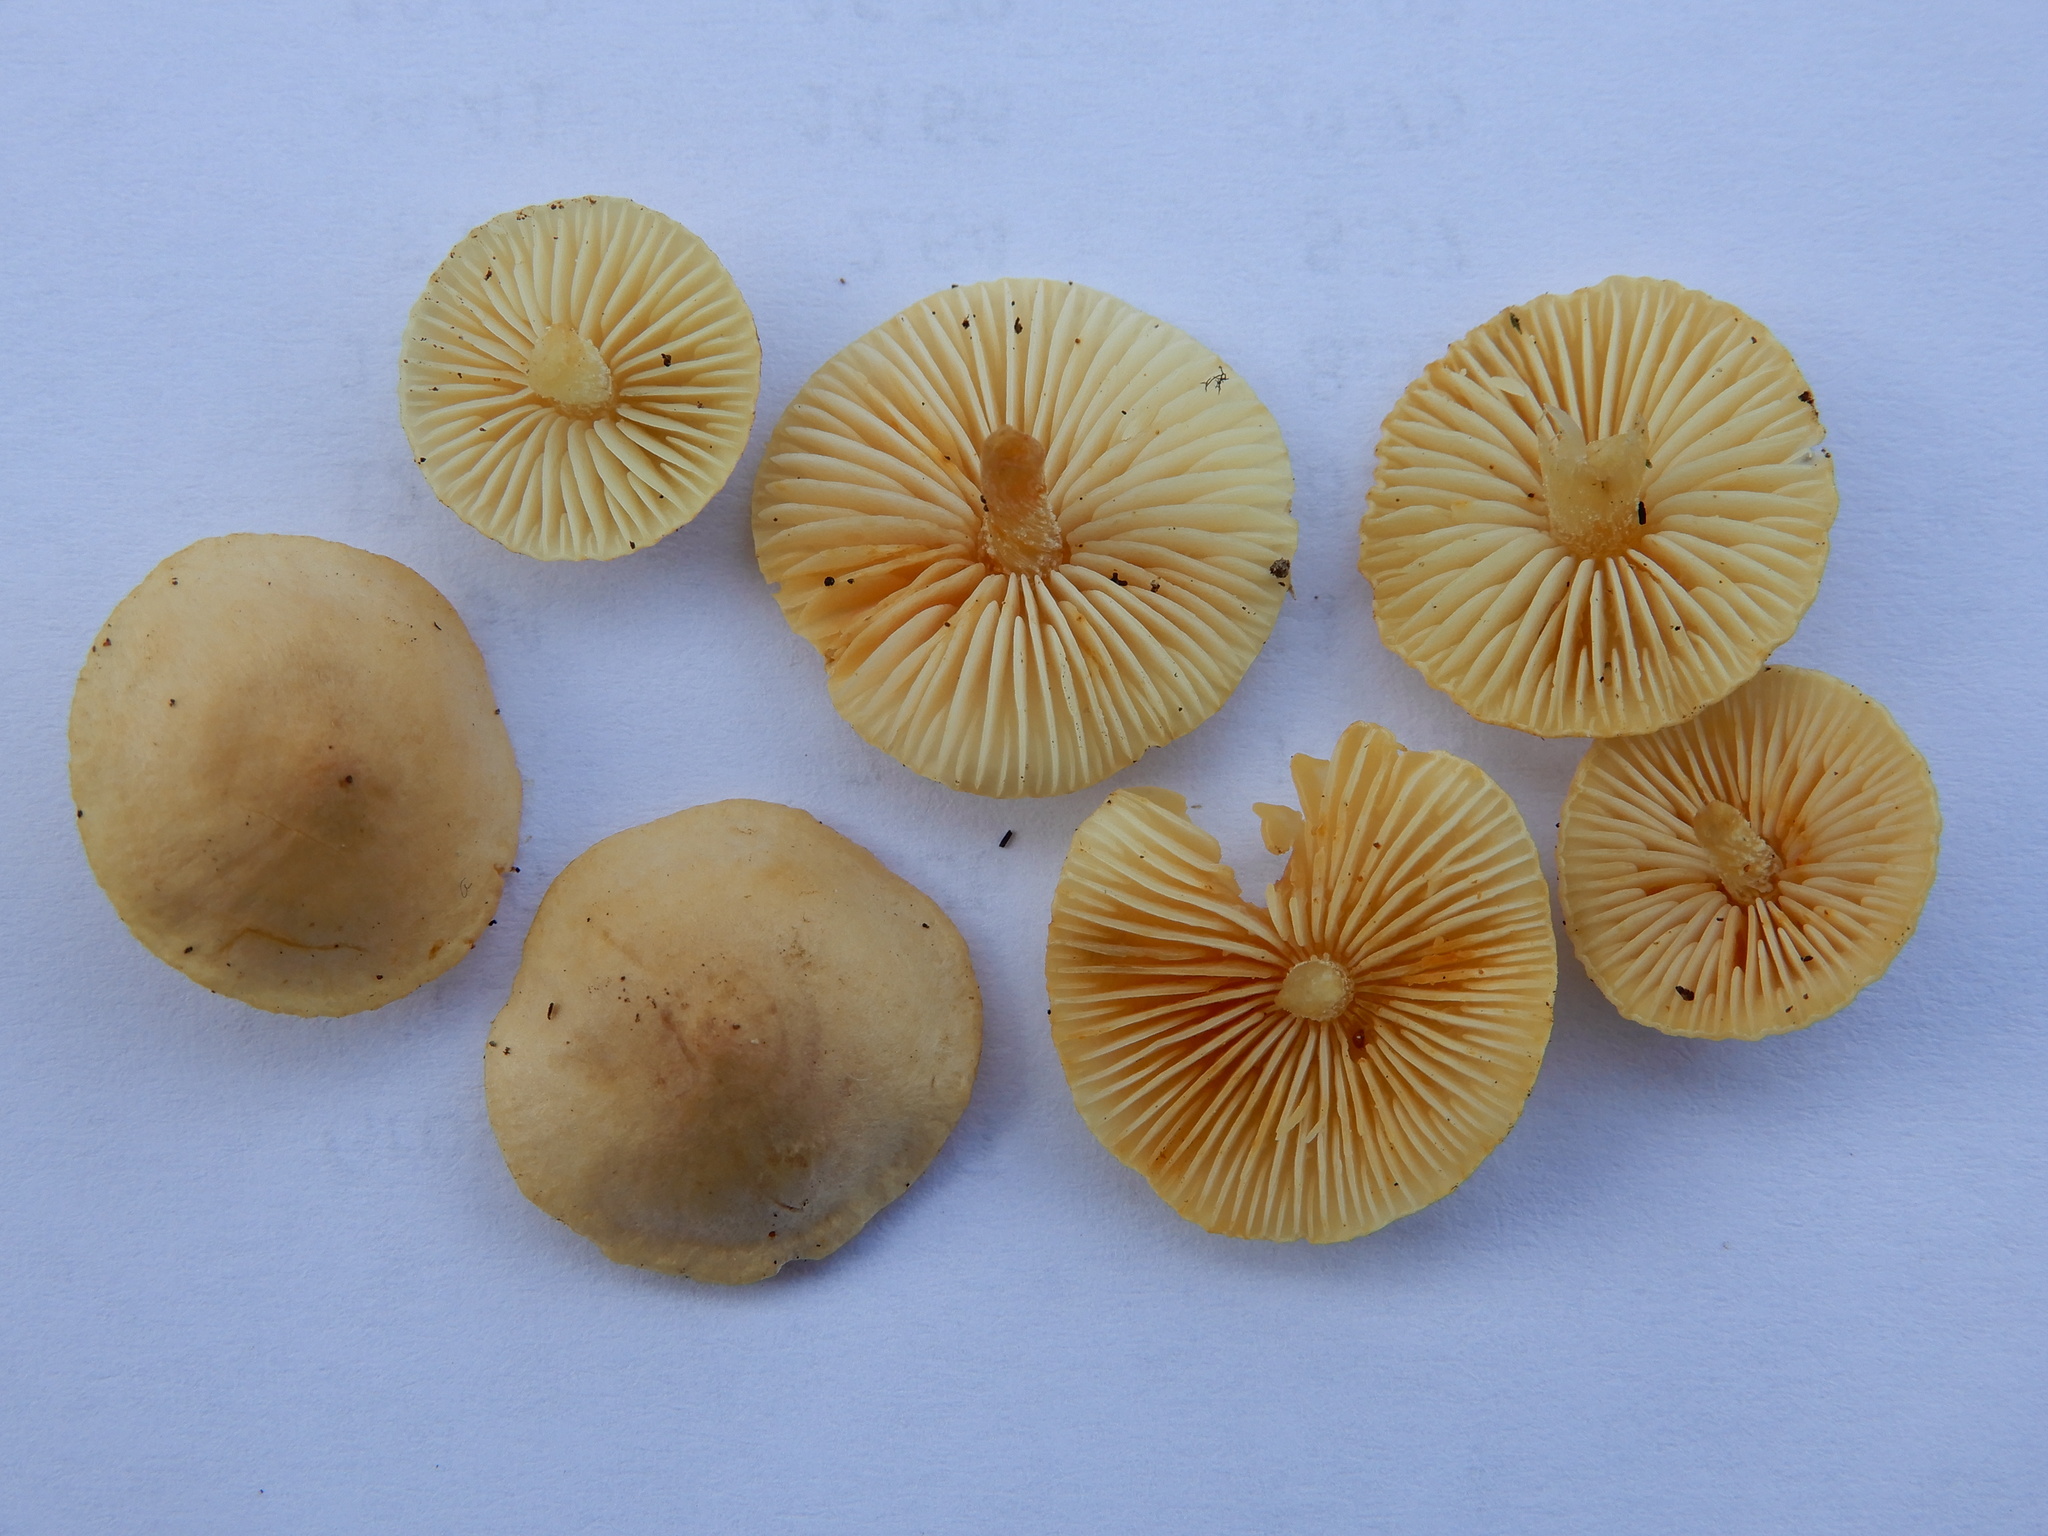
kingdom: Fungi
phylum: Basidiomycota
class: Agaricomycetes
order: Agaricales
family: Tricholomataceae
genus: Pseudobaeospora
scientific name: Pseudobaeospora
